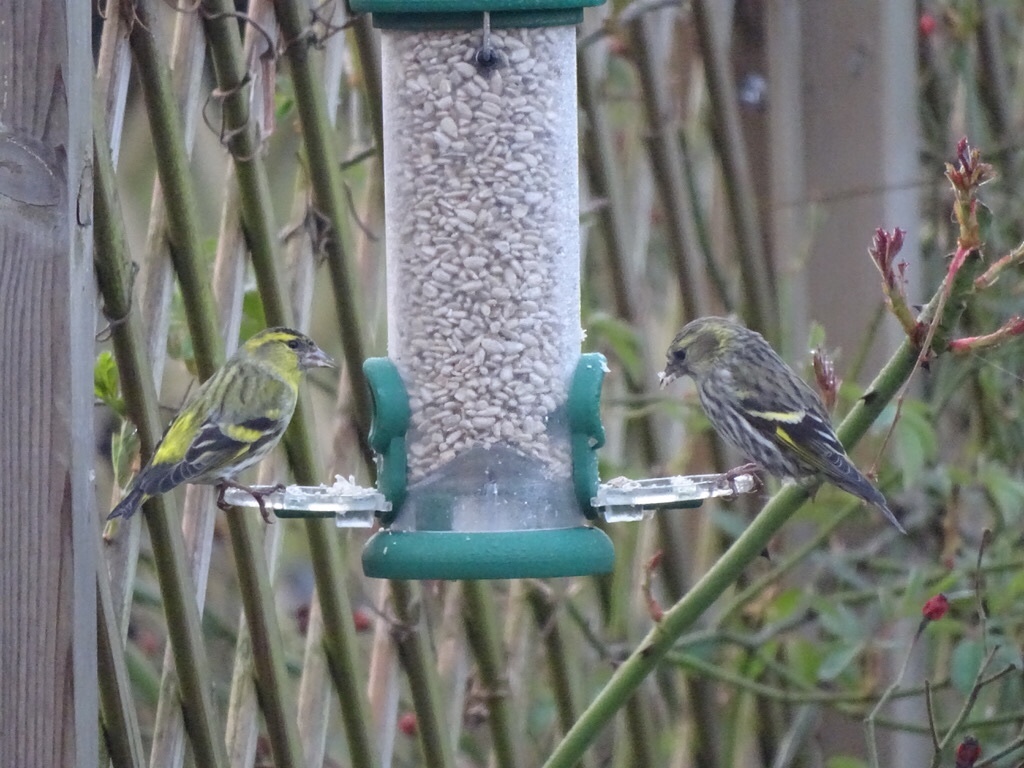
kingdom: Animalia
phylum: Chordata
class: Aves
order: Passeriformes
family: Fringillidae
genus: Spinus
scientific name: Spinus spinus
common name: Eurasian siskin
